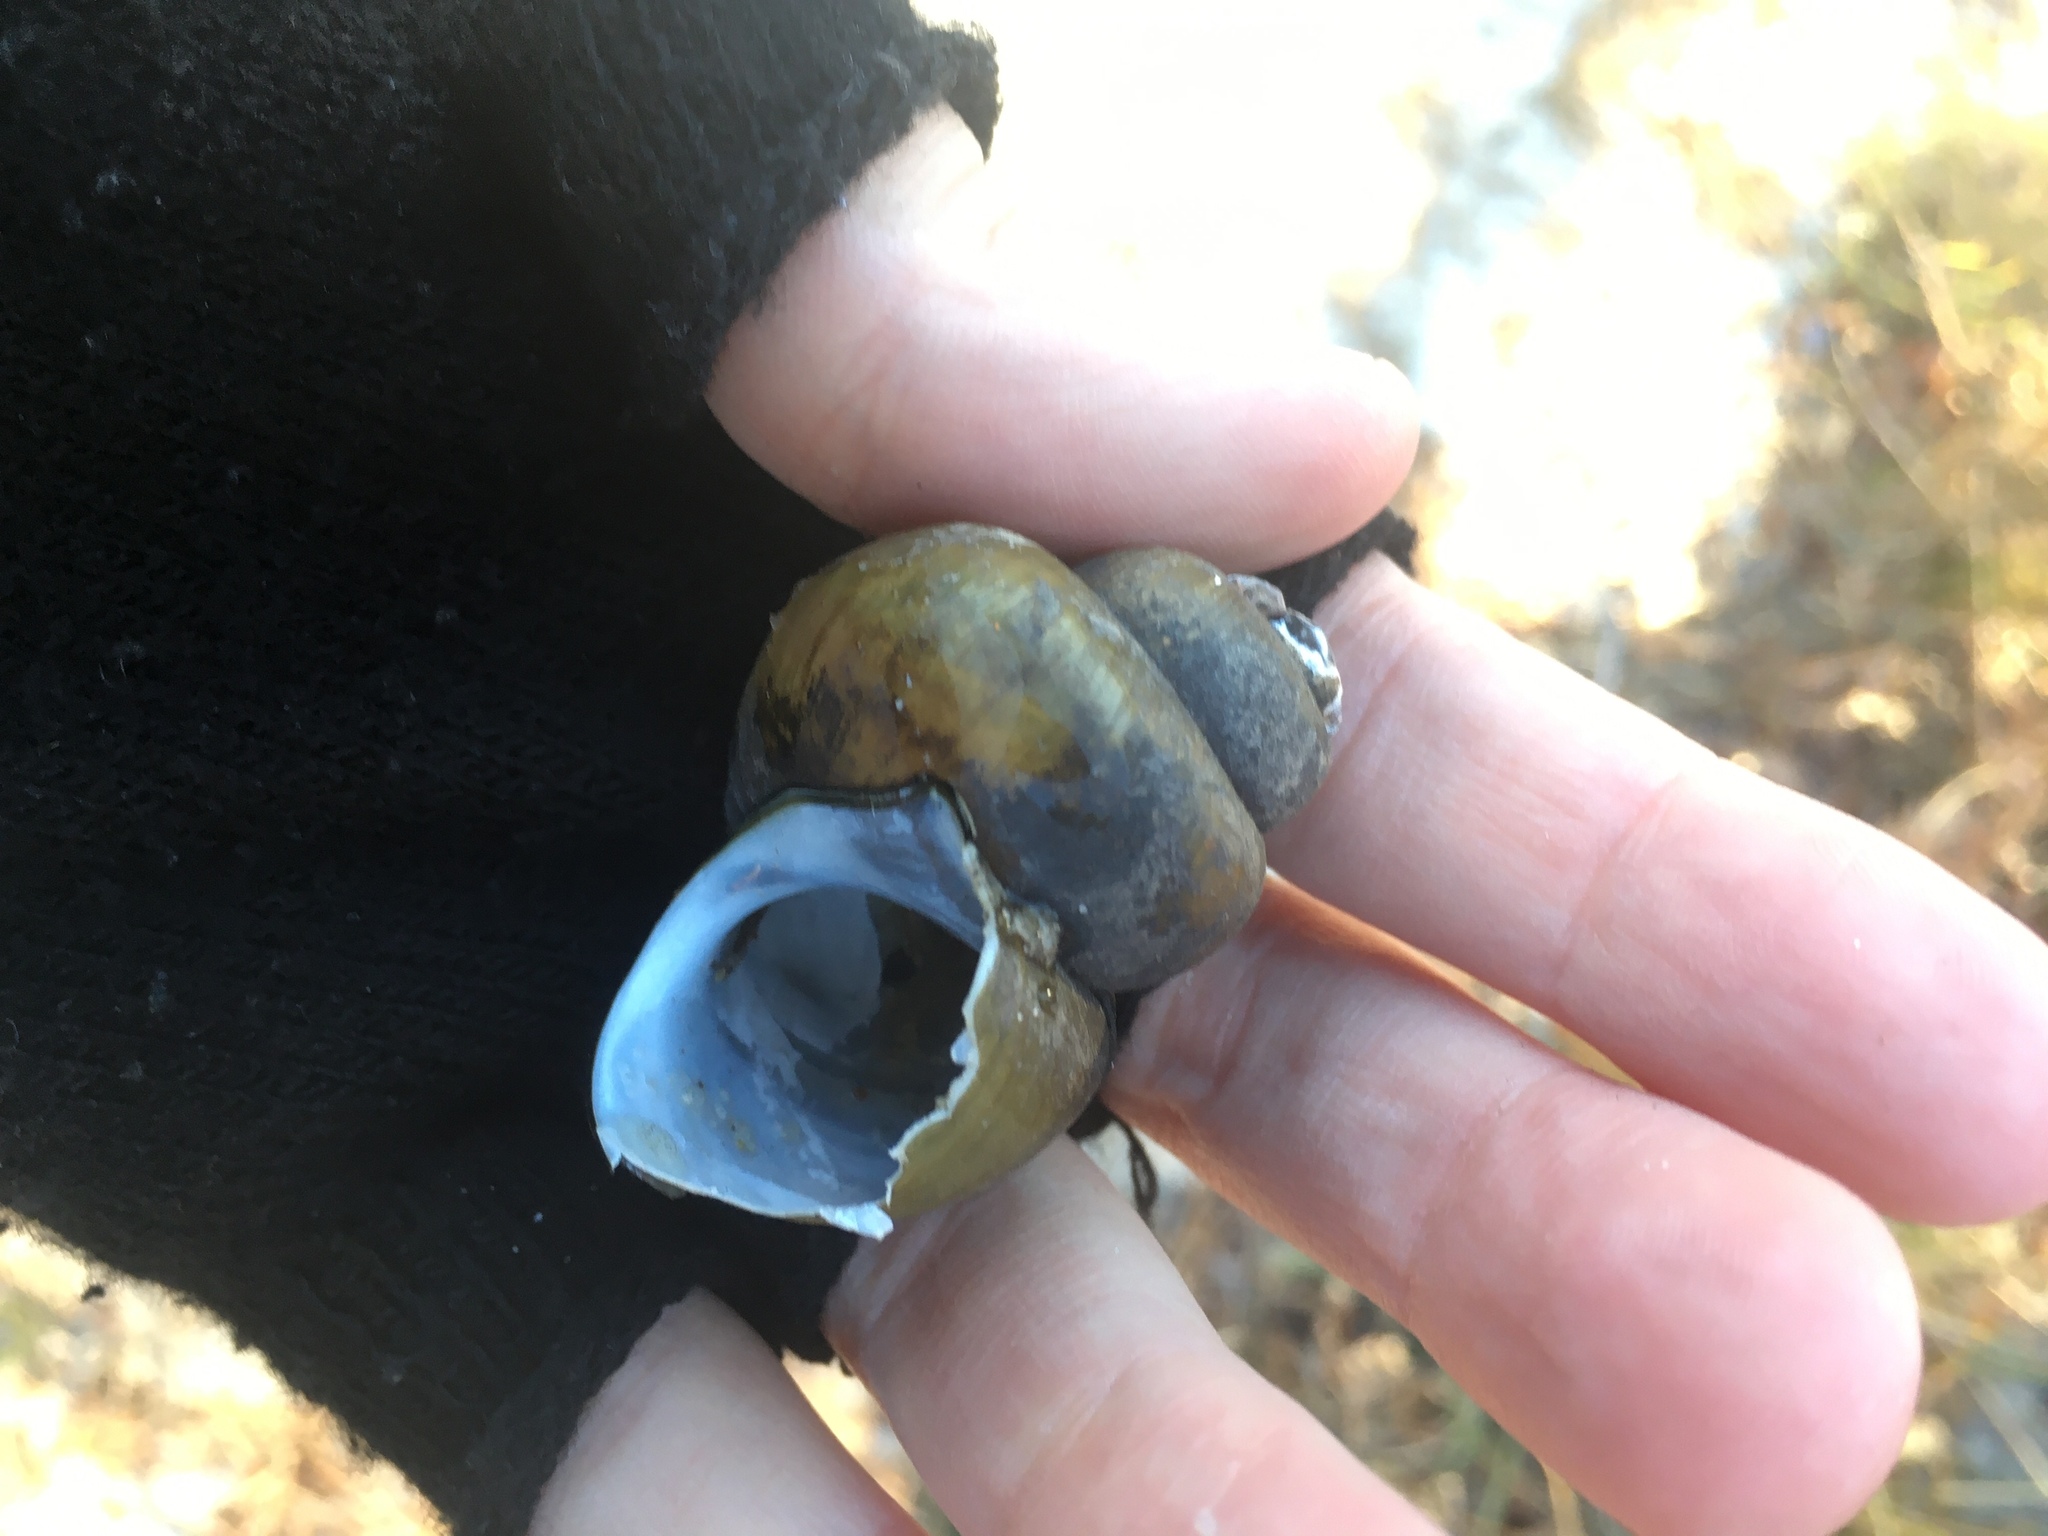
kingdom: Animalia
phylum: Mollusca
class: Gastropoda
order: Architaenioglossa
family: Viviparidae
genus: Cipangopaludina
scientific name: Cipangopaludina chinensis
